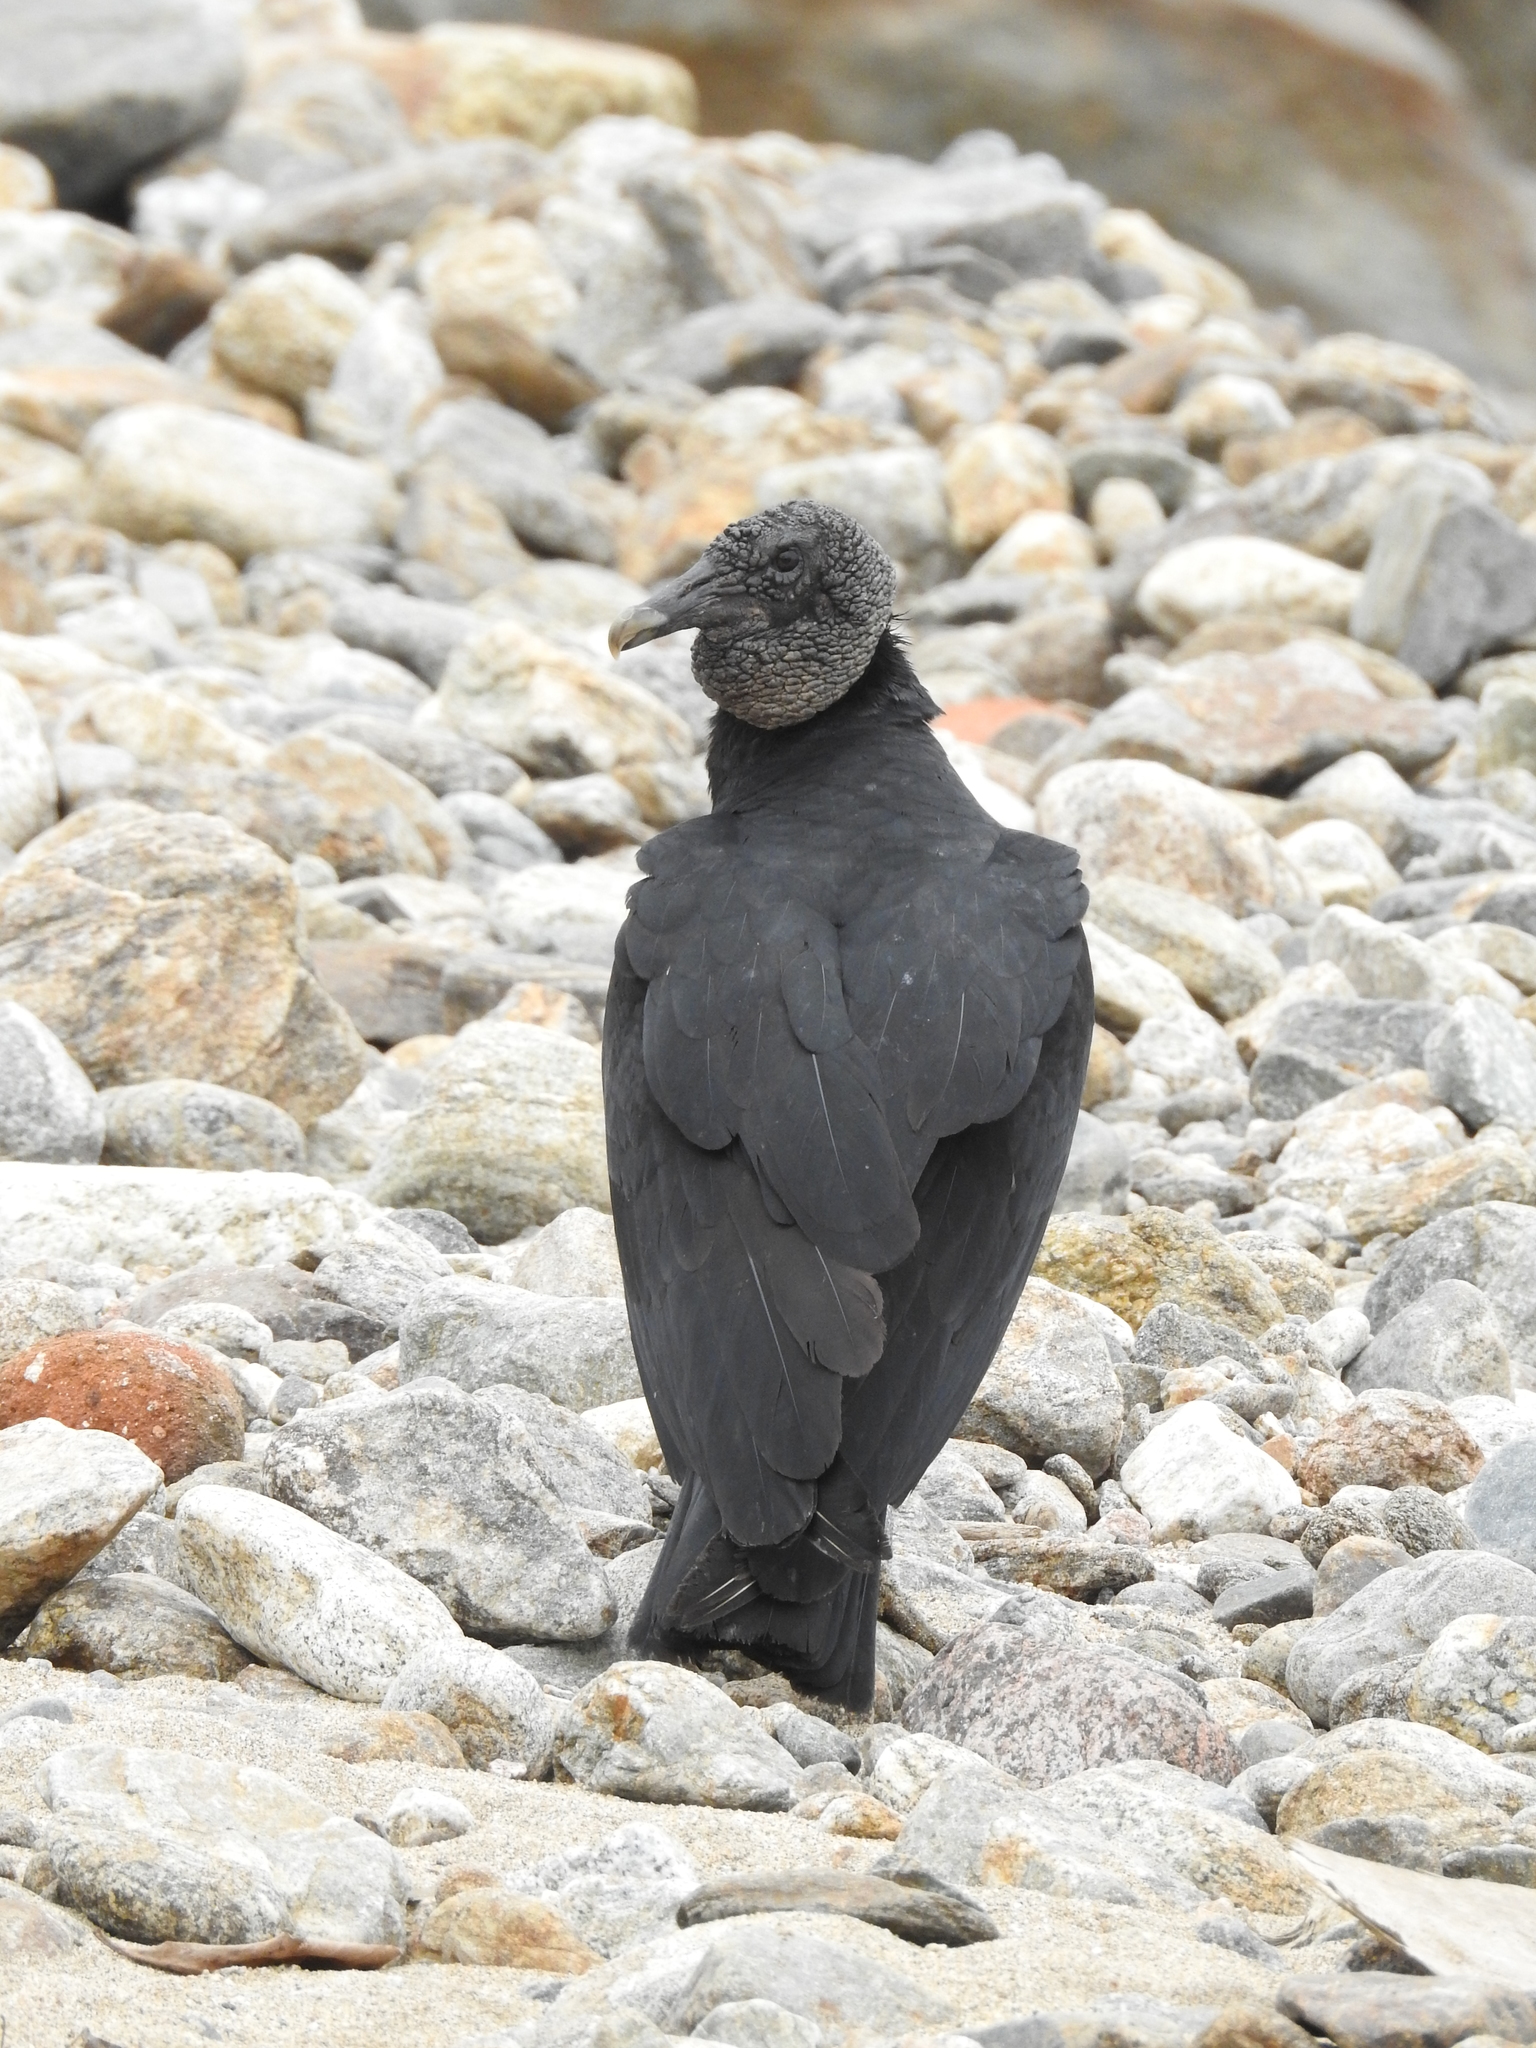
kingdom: Animalia
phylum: Chordata
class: Aves
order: Accipitriformes
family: Cathartidae
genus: Coragyps
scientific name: Coragyps atratus
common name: Black vulture
